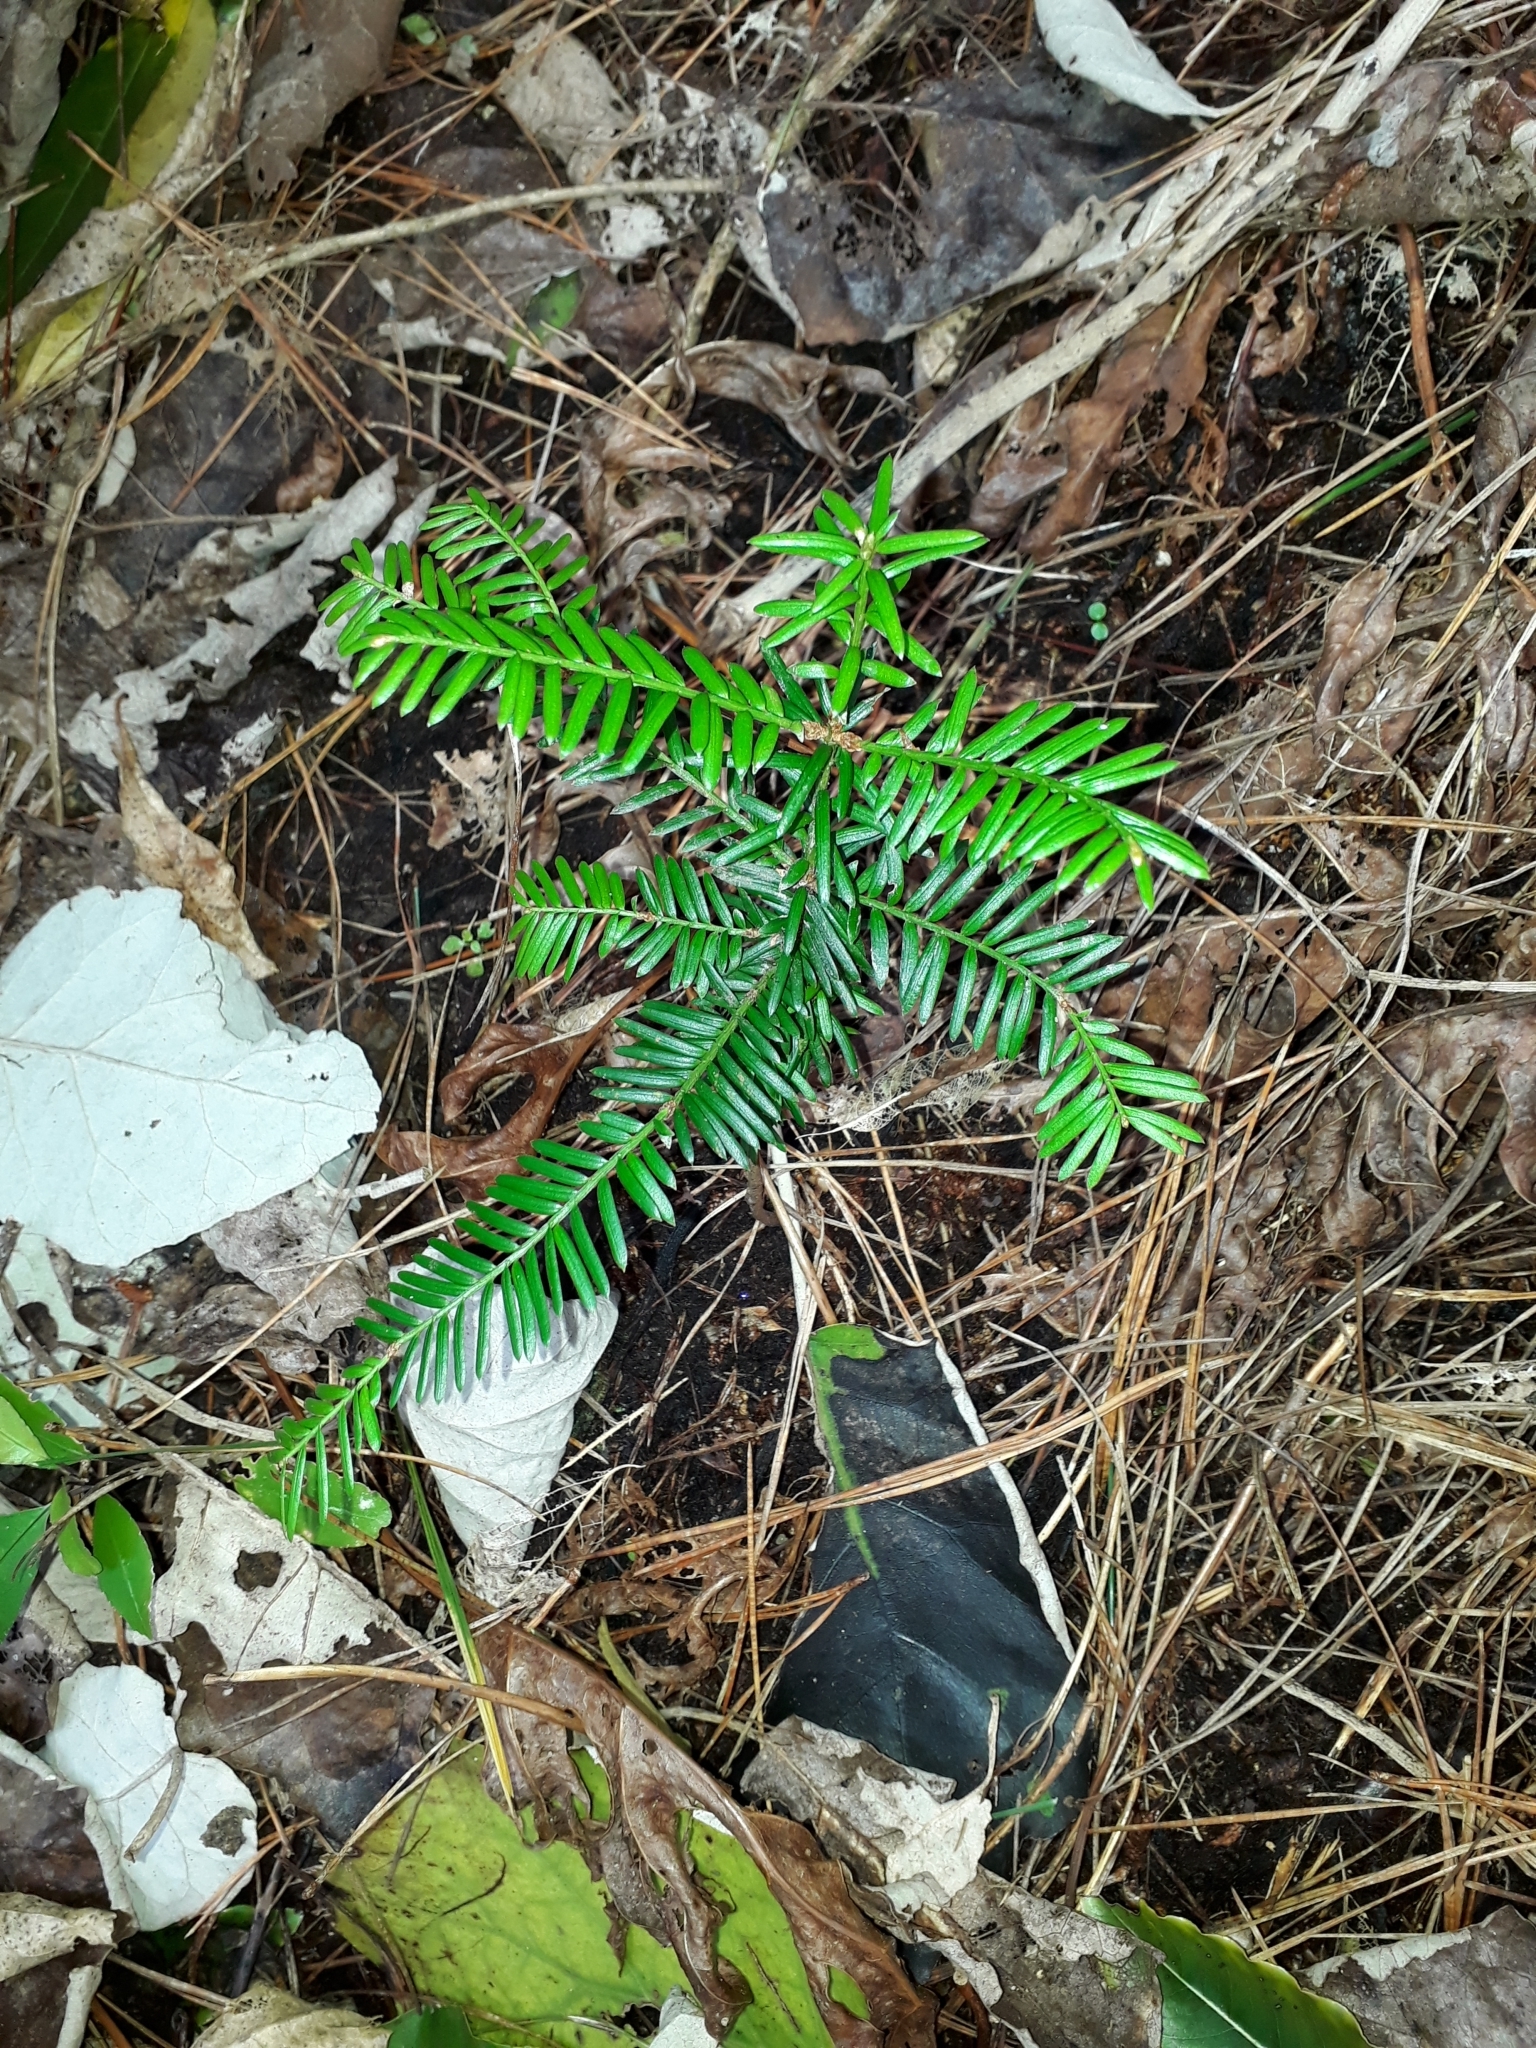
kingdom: Plantae
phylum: Tracheophyta
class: Pinopsida
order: Pinales
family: Taxaceae
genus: Taxus
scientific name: Taxus baccata
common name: Yew
